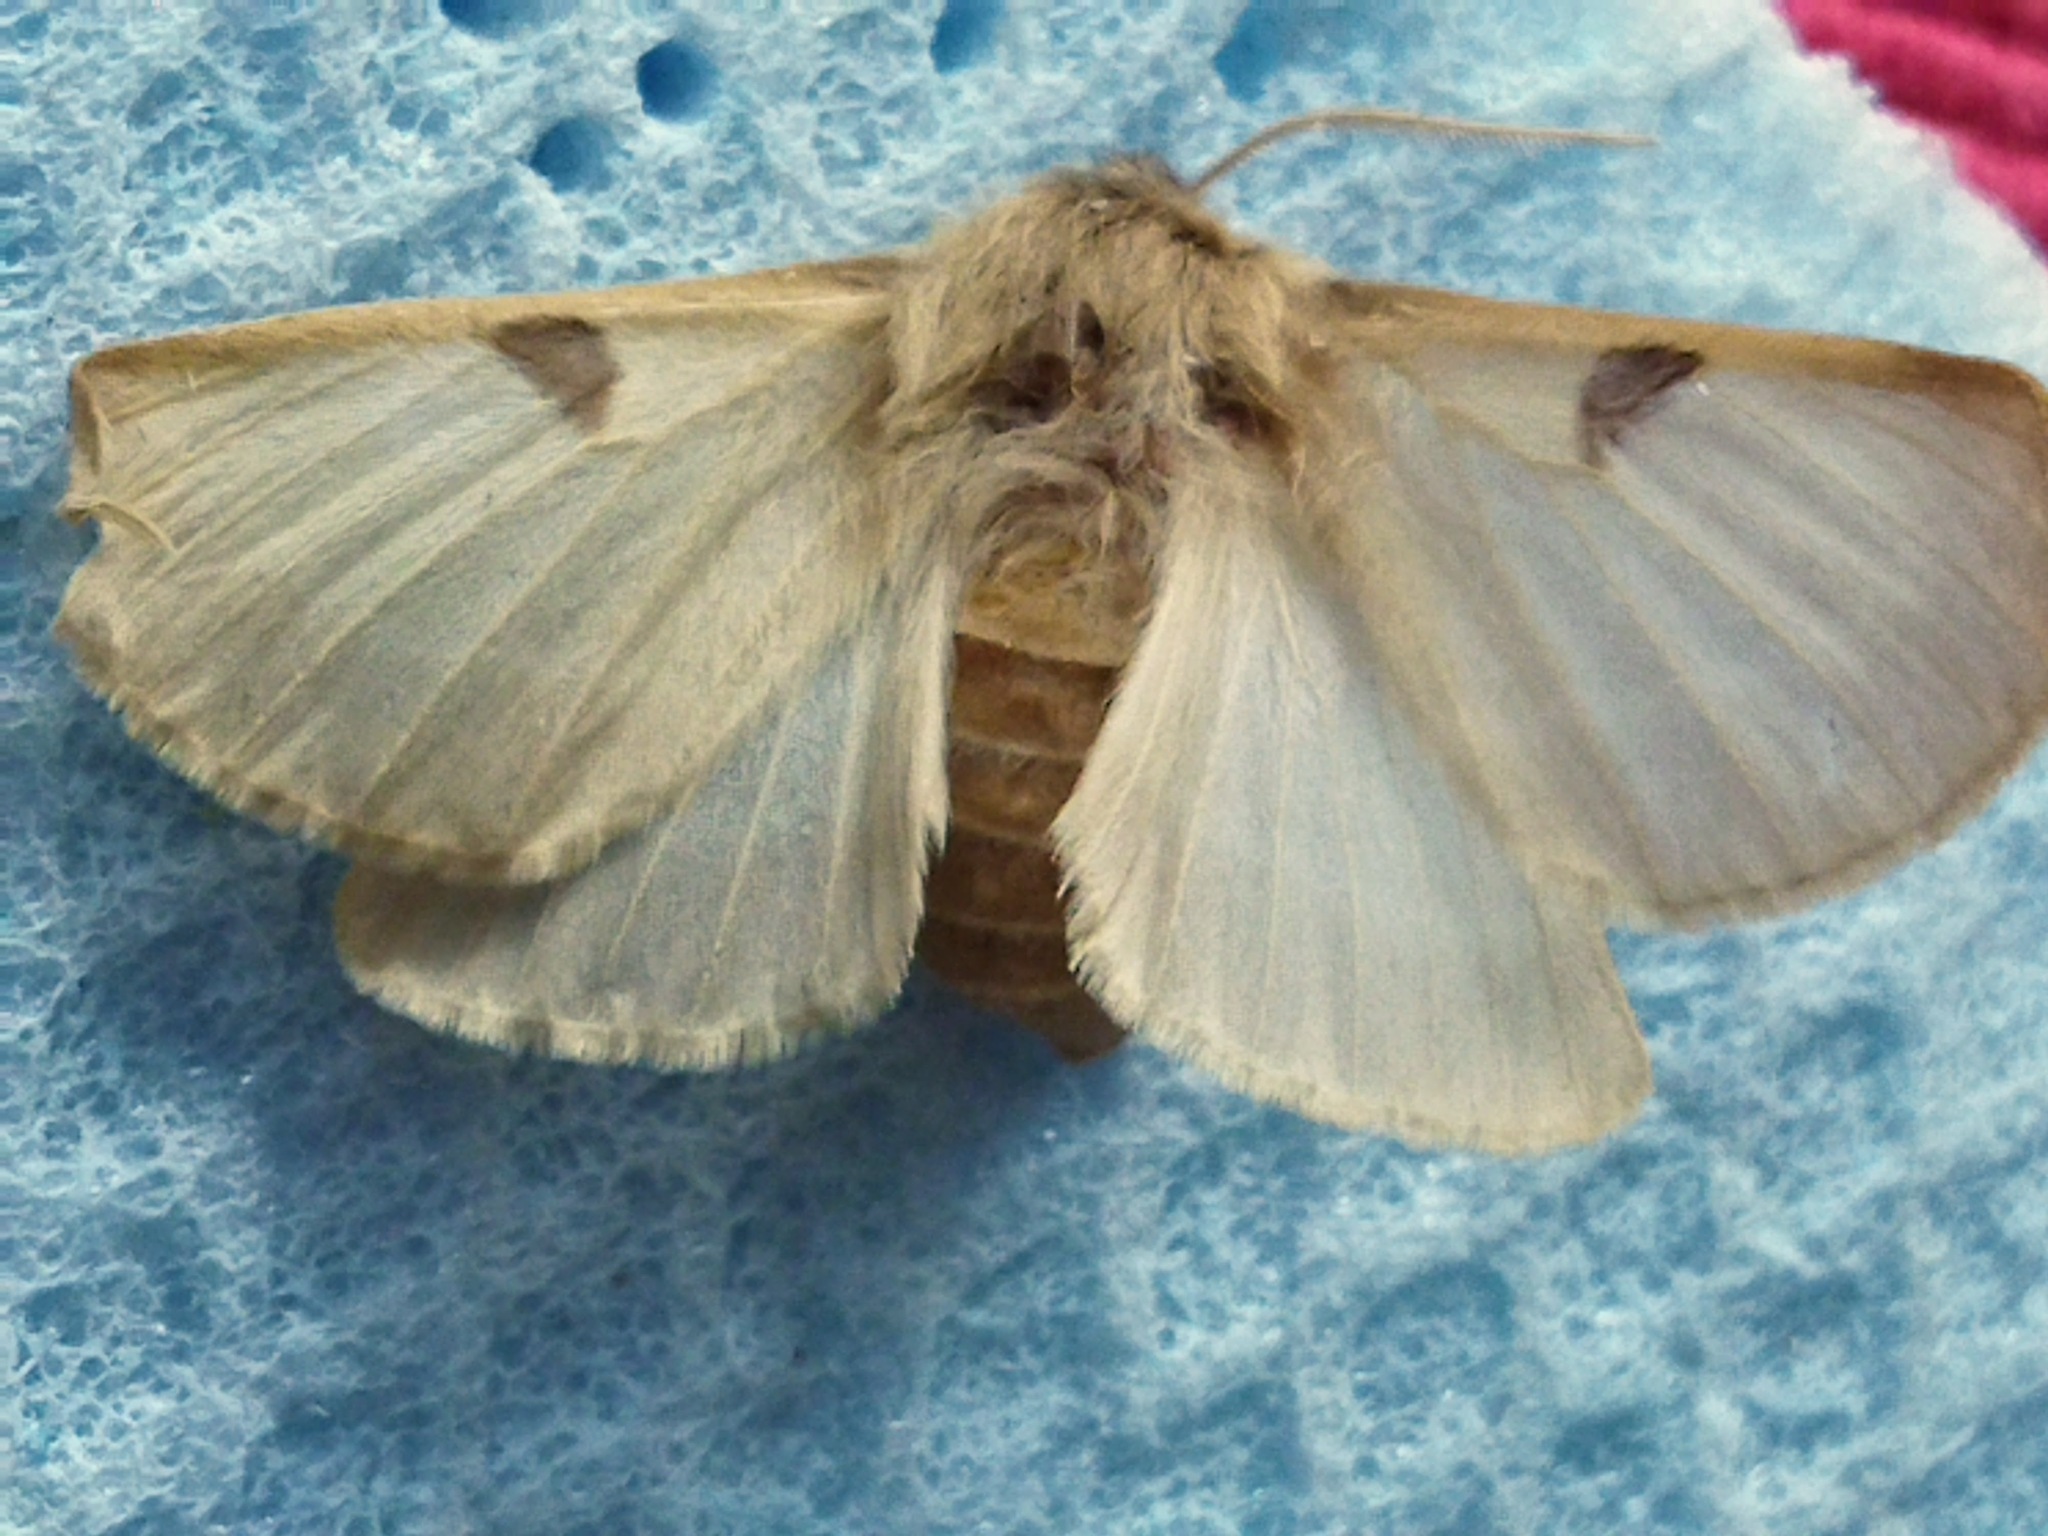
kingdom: Animalia
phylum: Arthropoda
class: Insecta
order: Lepidoptera
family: Brahmaeidae
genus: Lemonia
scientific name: Lemonia balcanica
